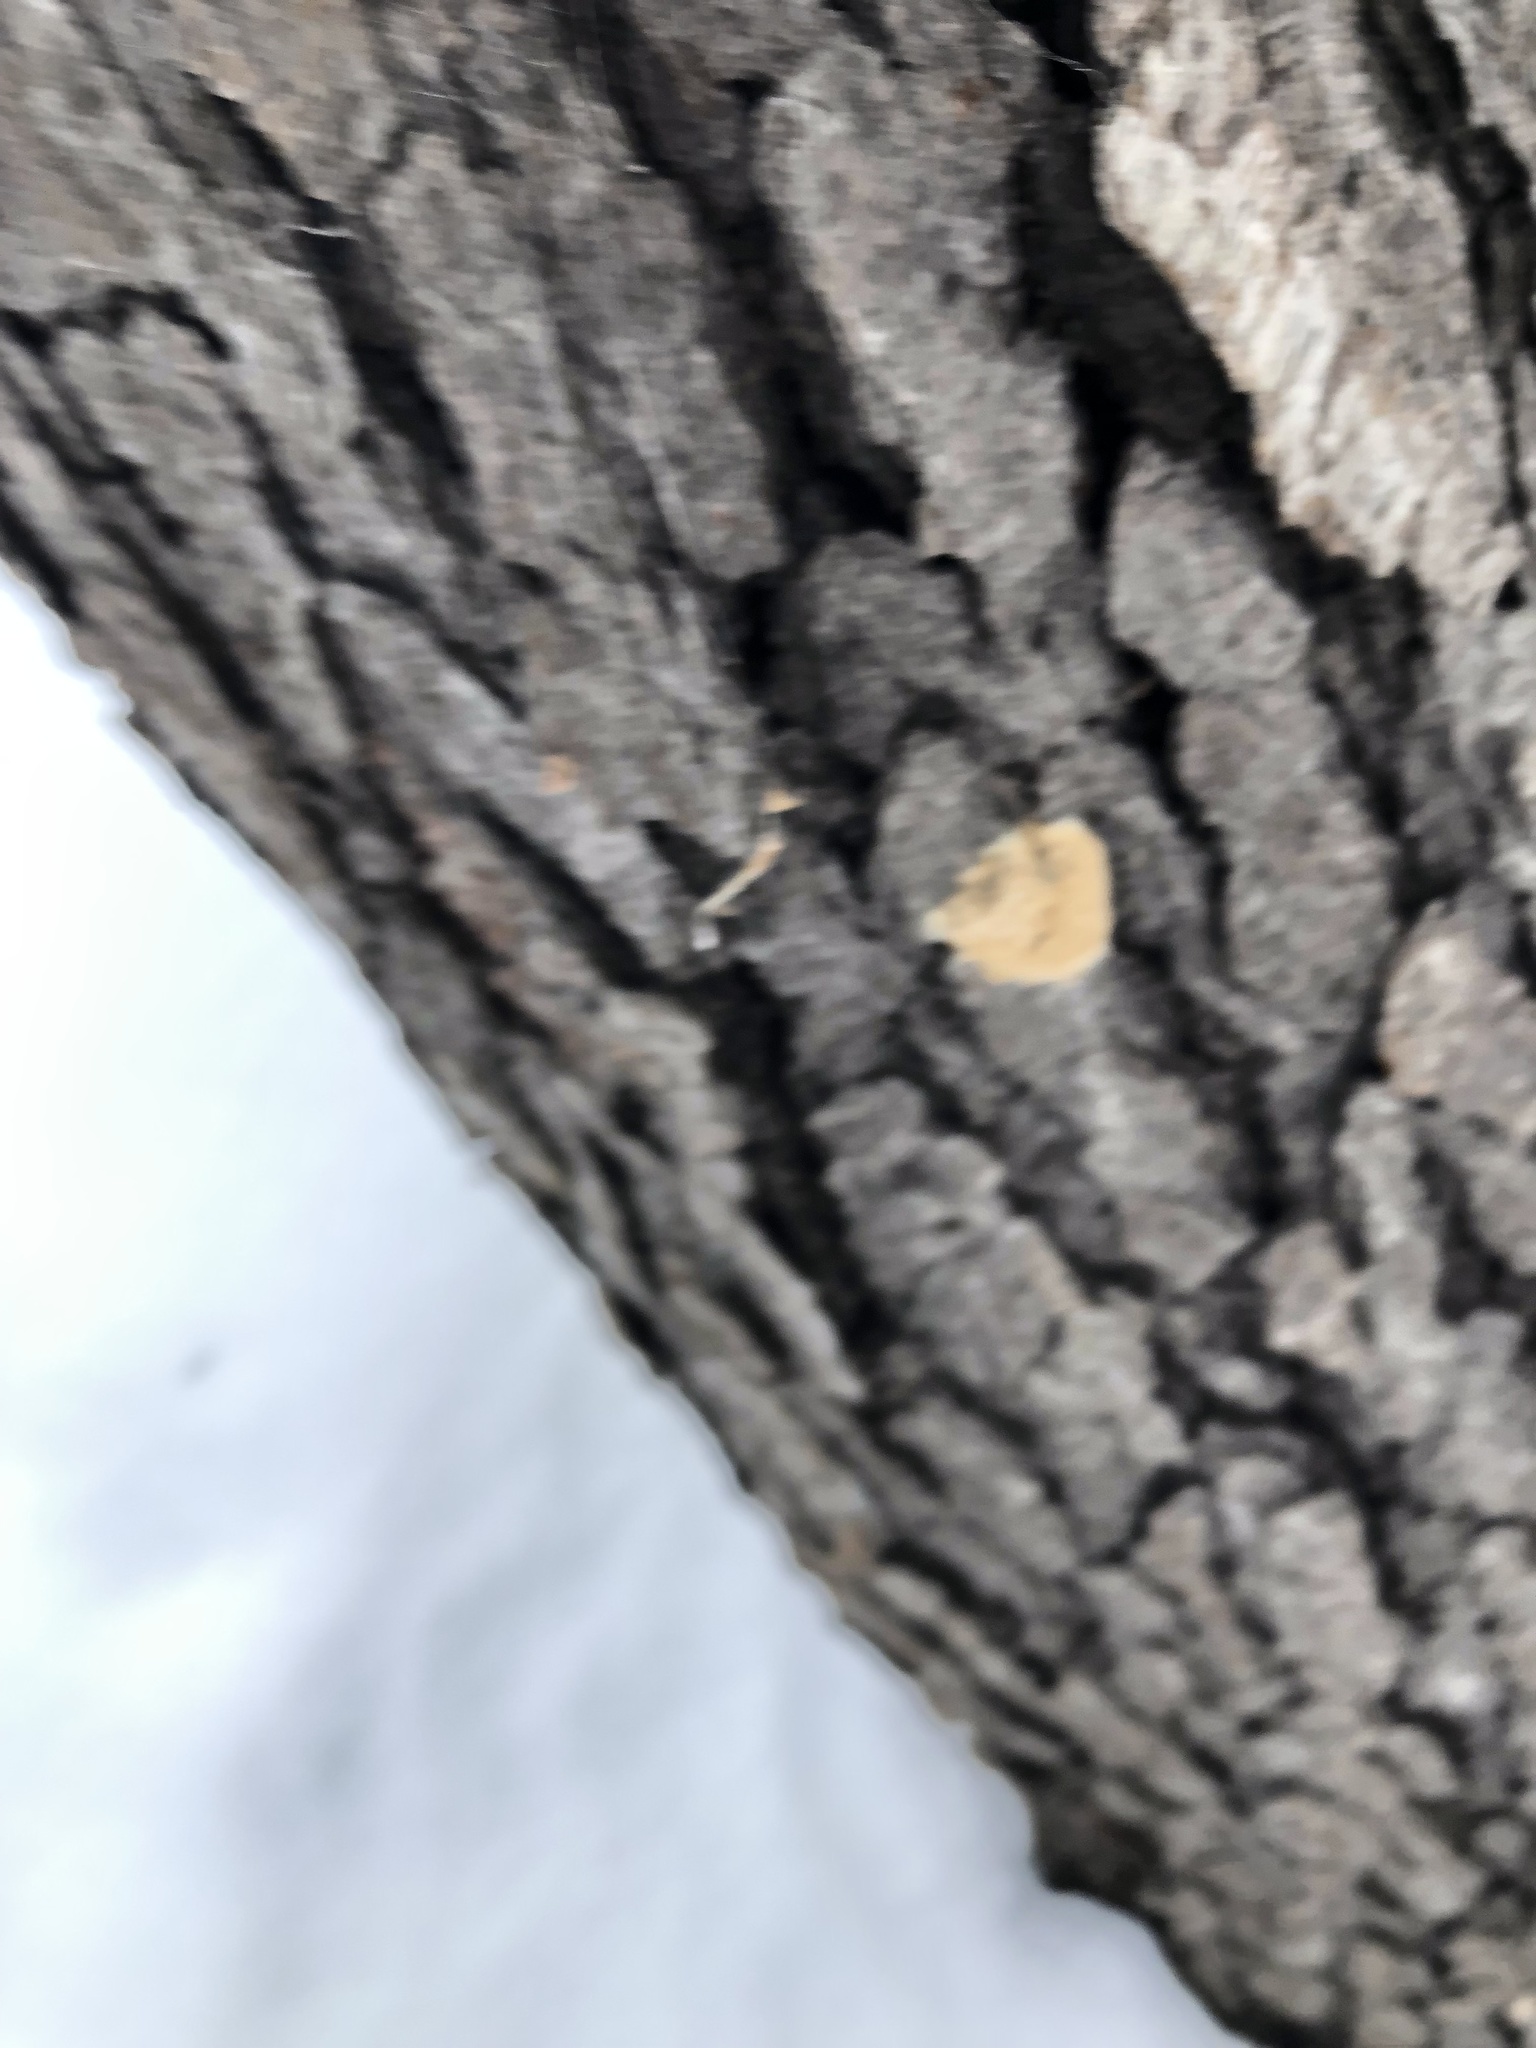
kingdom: Animalia
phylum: Arthropoda
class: Insecta
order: Lepidoptera
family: Erebidae
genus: Lymantria
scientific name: Lymantria dispar
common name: Gypsy moth
